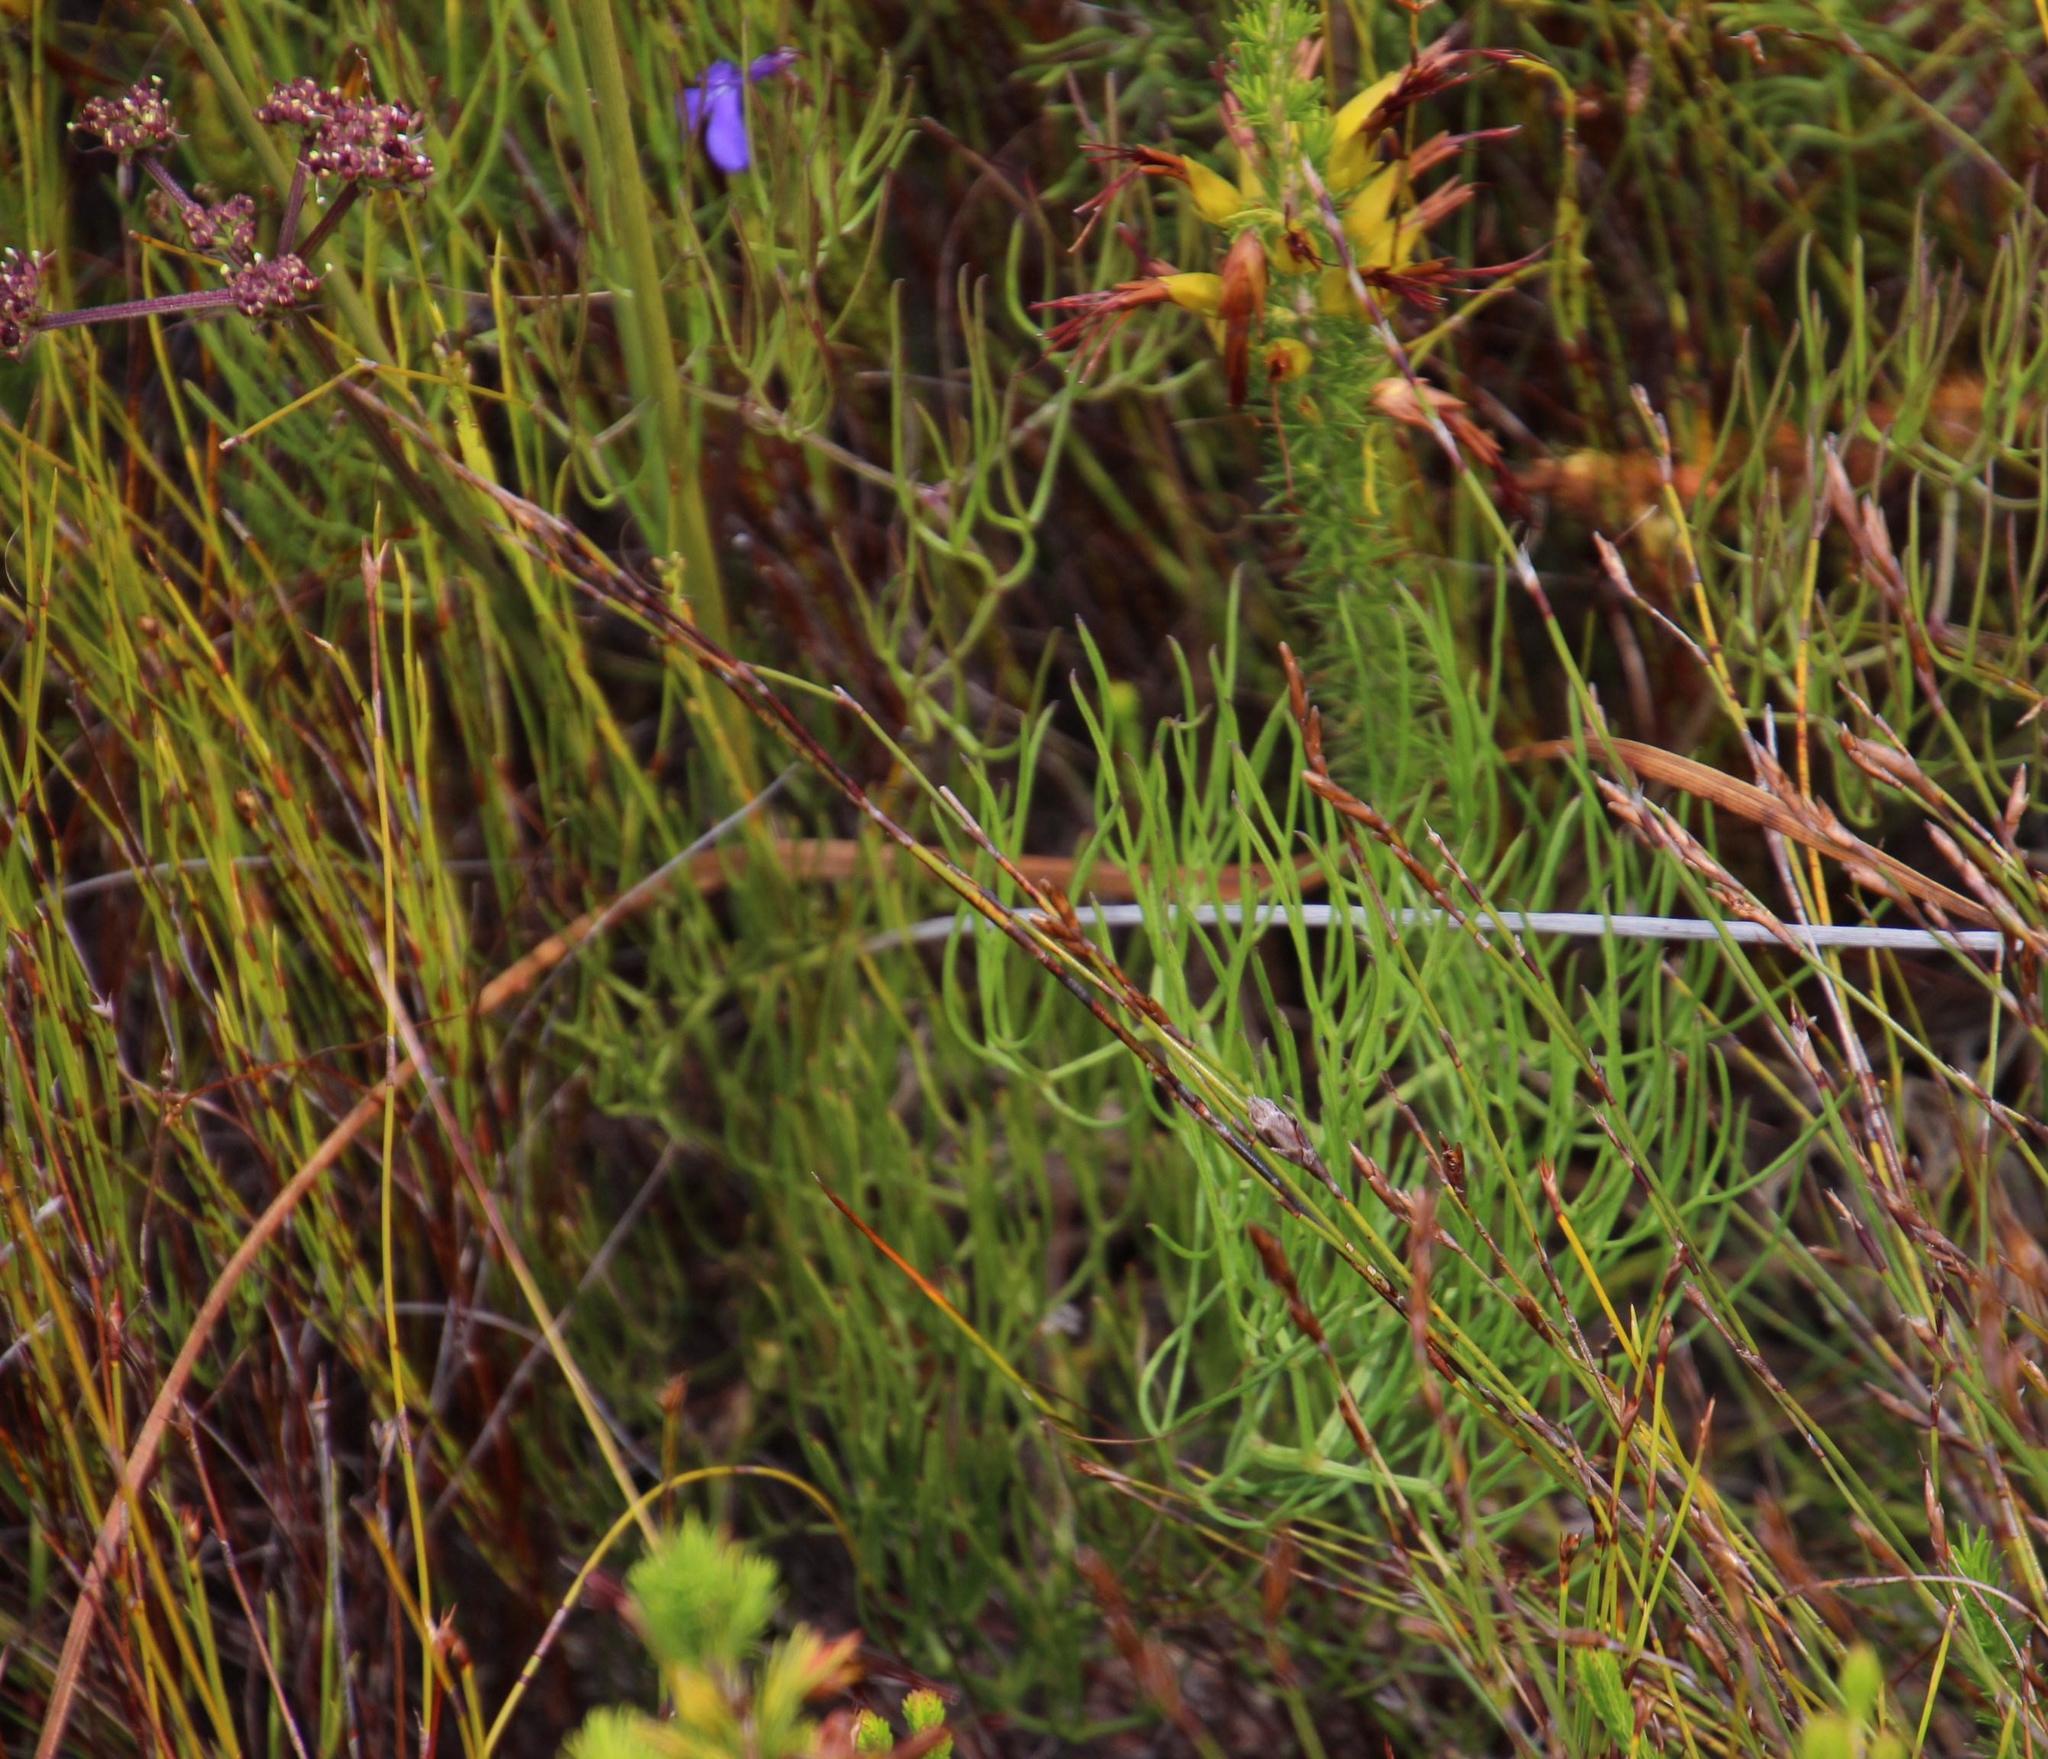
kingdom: Plantae
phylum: Tracheophyta
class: Magnoliopsida
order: Apiales
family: Apiaceae
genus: Nanobubon
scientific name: Nanobubon capillaceum
